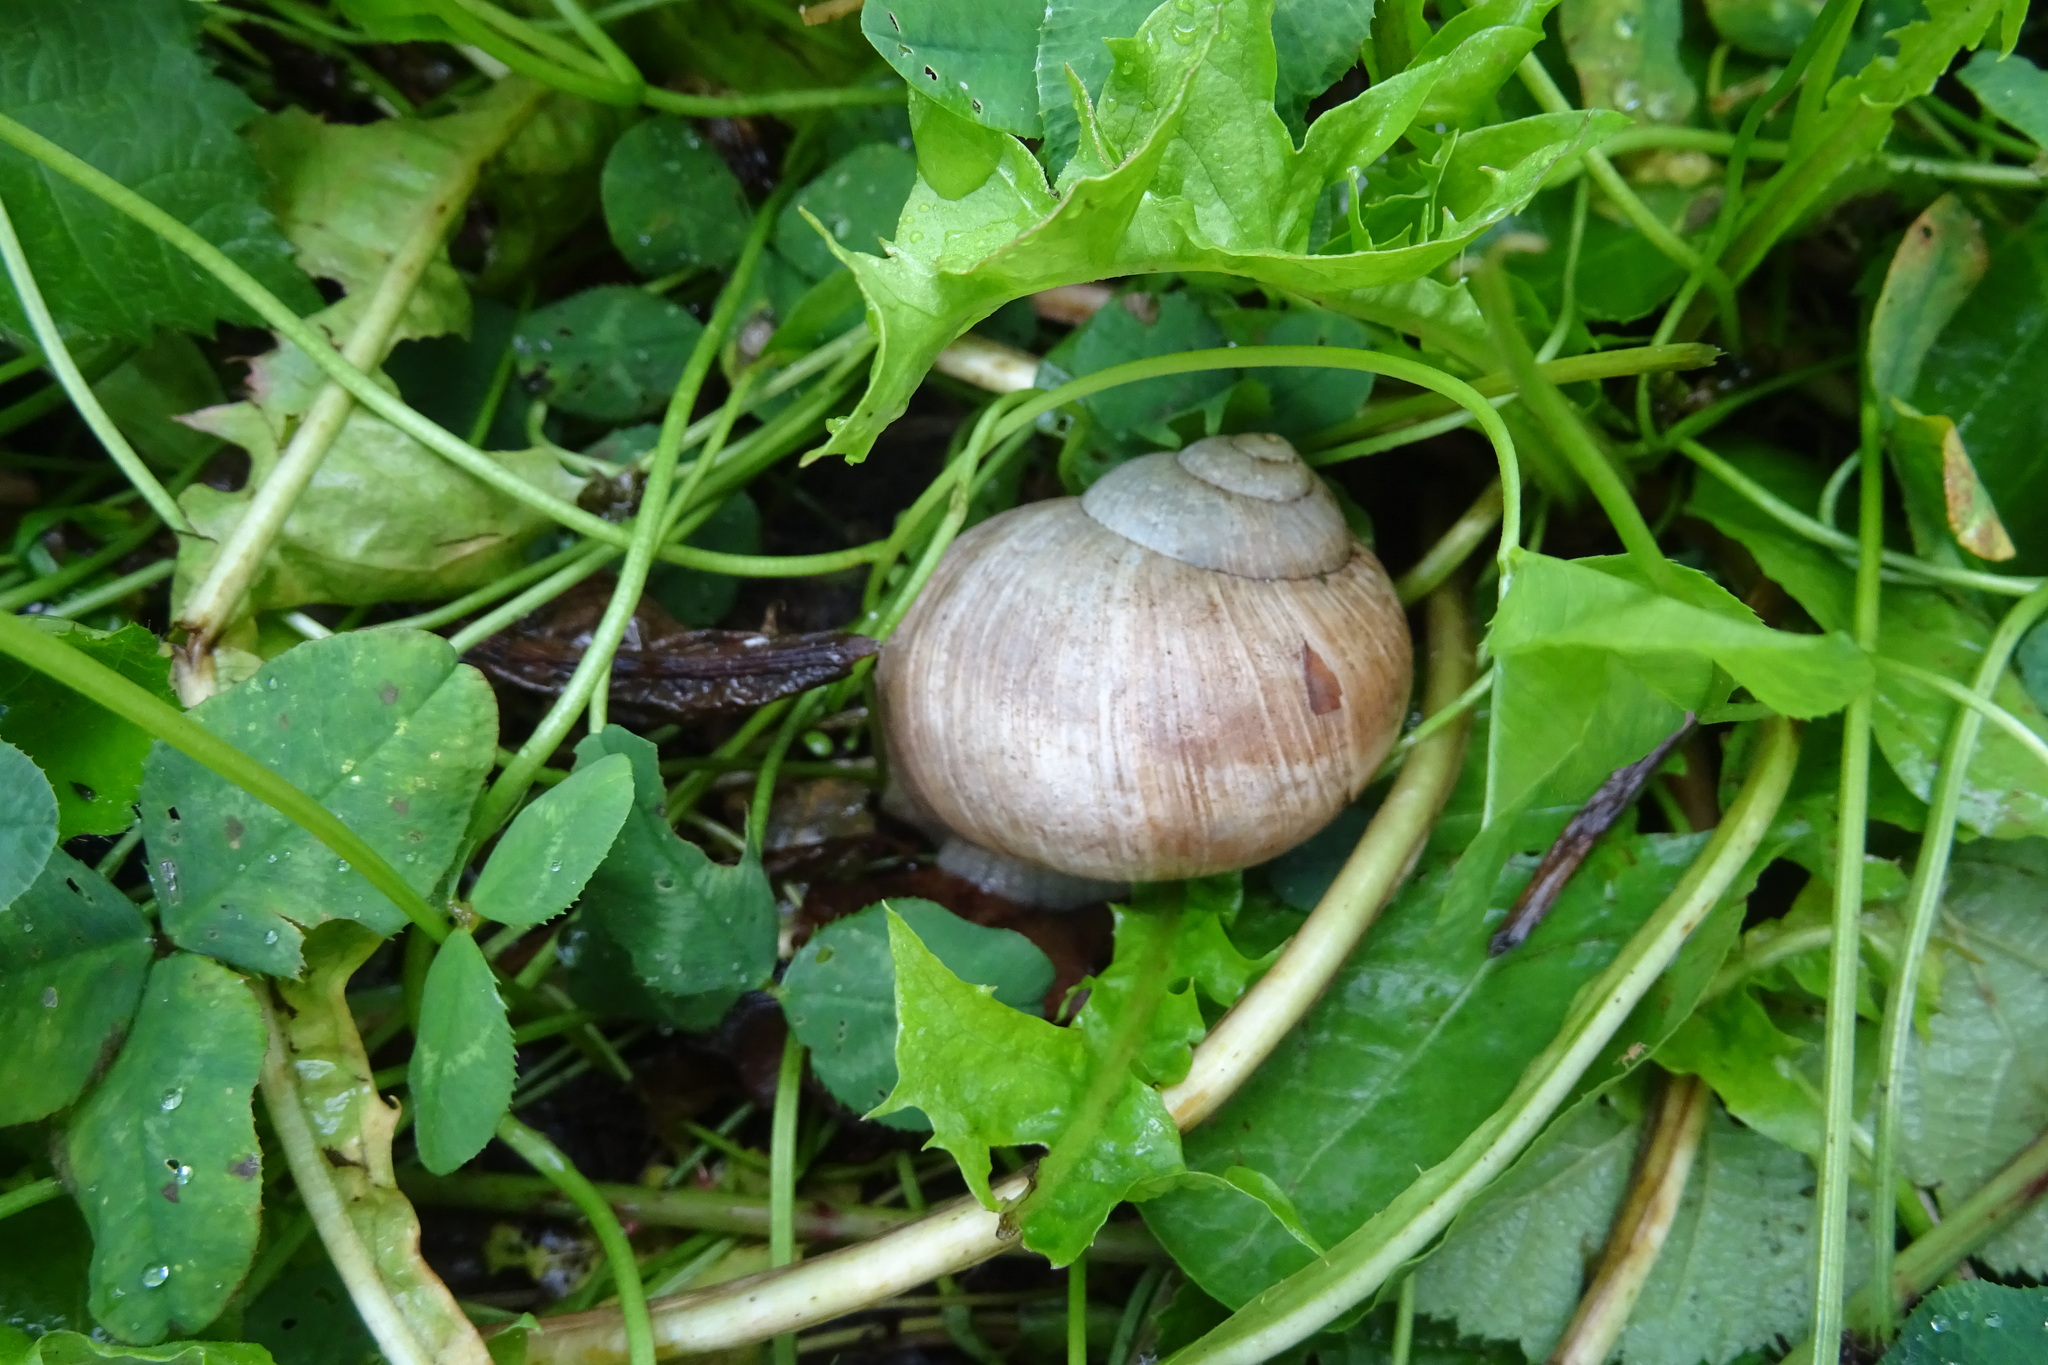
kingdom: Animalia
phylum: Mollusca
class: Gastropoda
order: Stylommatophora
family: Helicidae
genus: Helix
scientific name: Helix pomatia
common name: Roman snail
